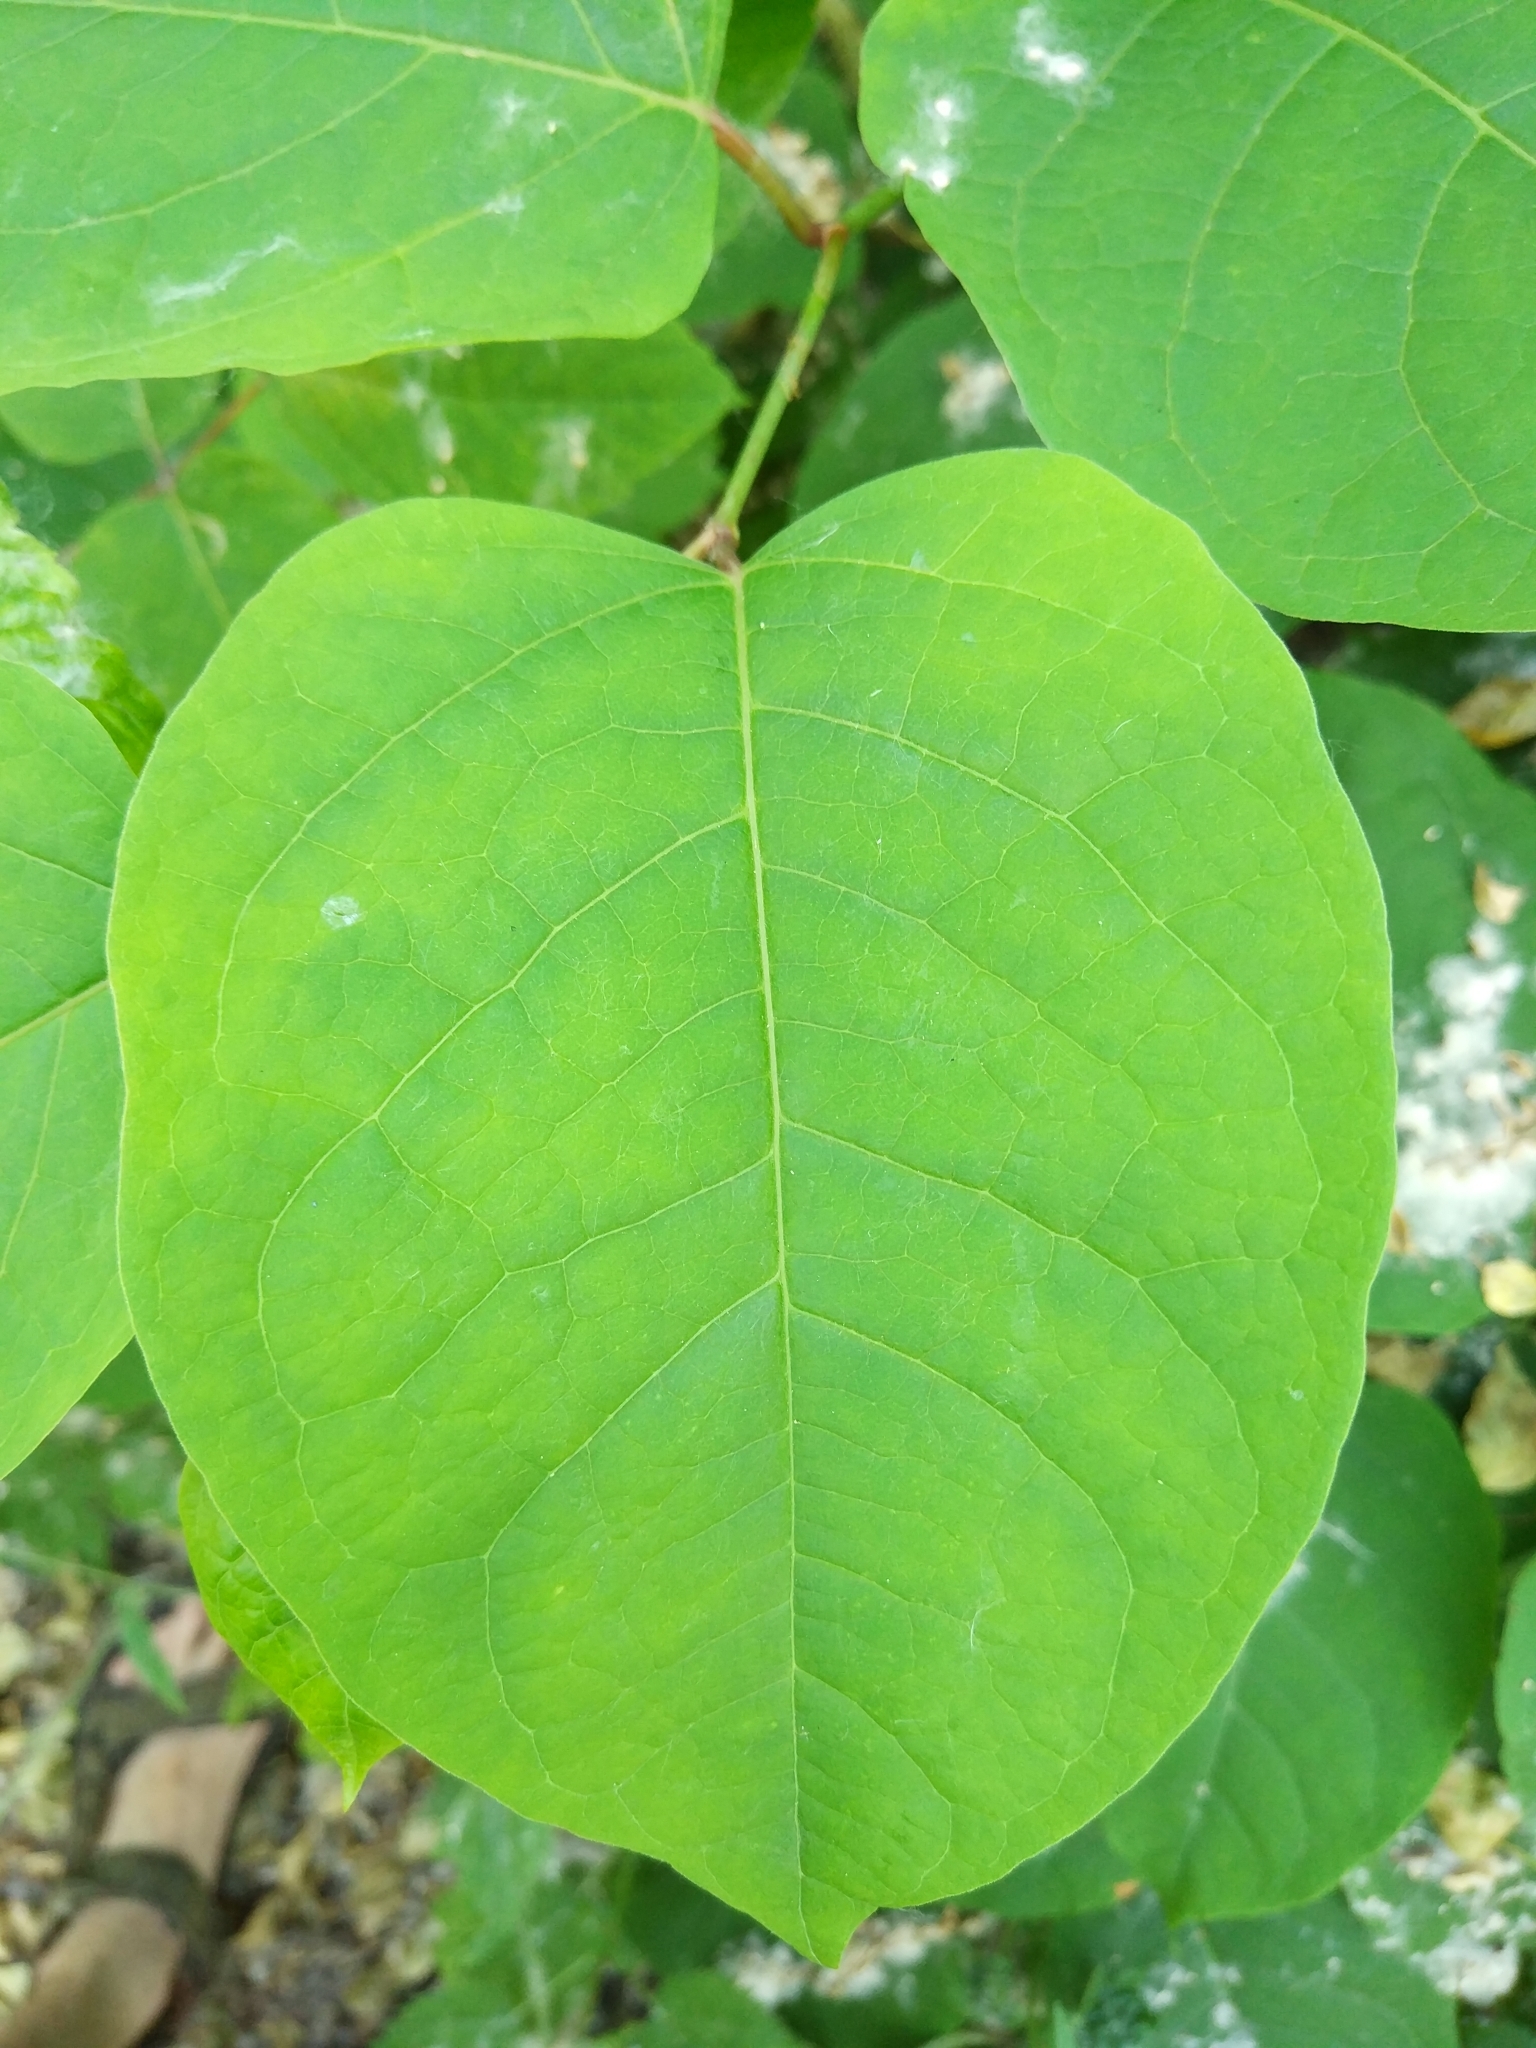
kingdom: Plantae
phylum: Tracheophyta
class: Magnoliopsida
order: Caryophyllales
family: Polygonaceae
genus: Reynoutria
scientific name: Reynoutria bohemica
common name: Bohemian knotweed
